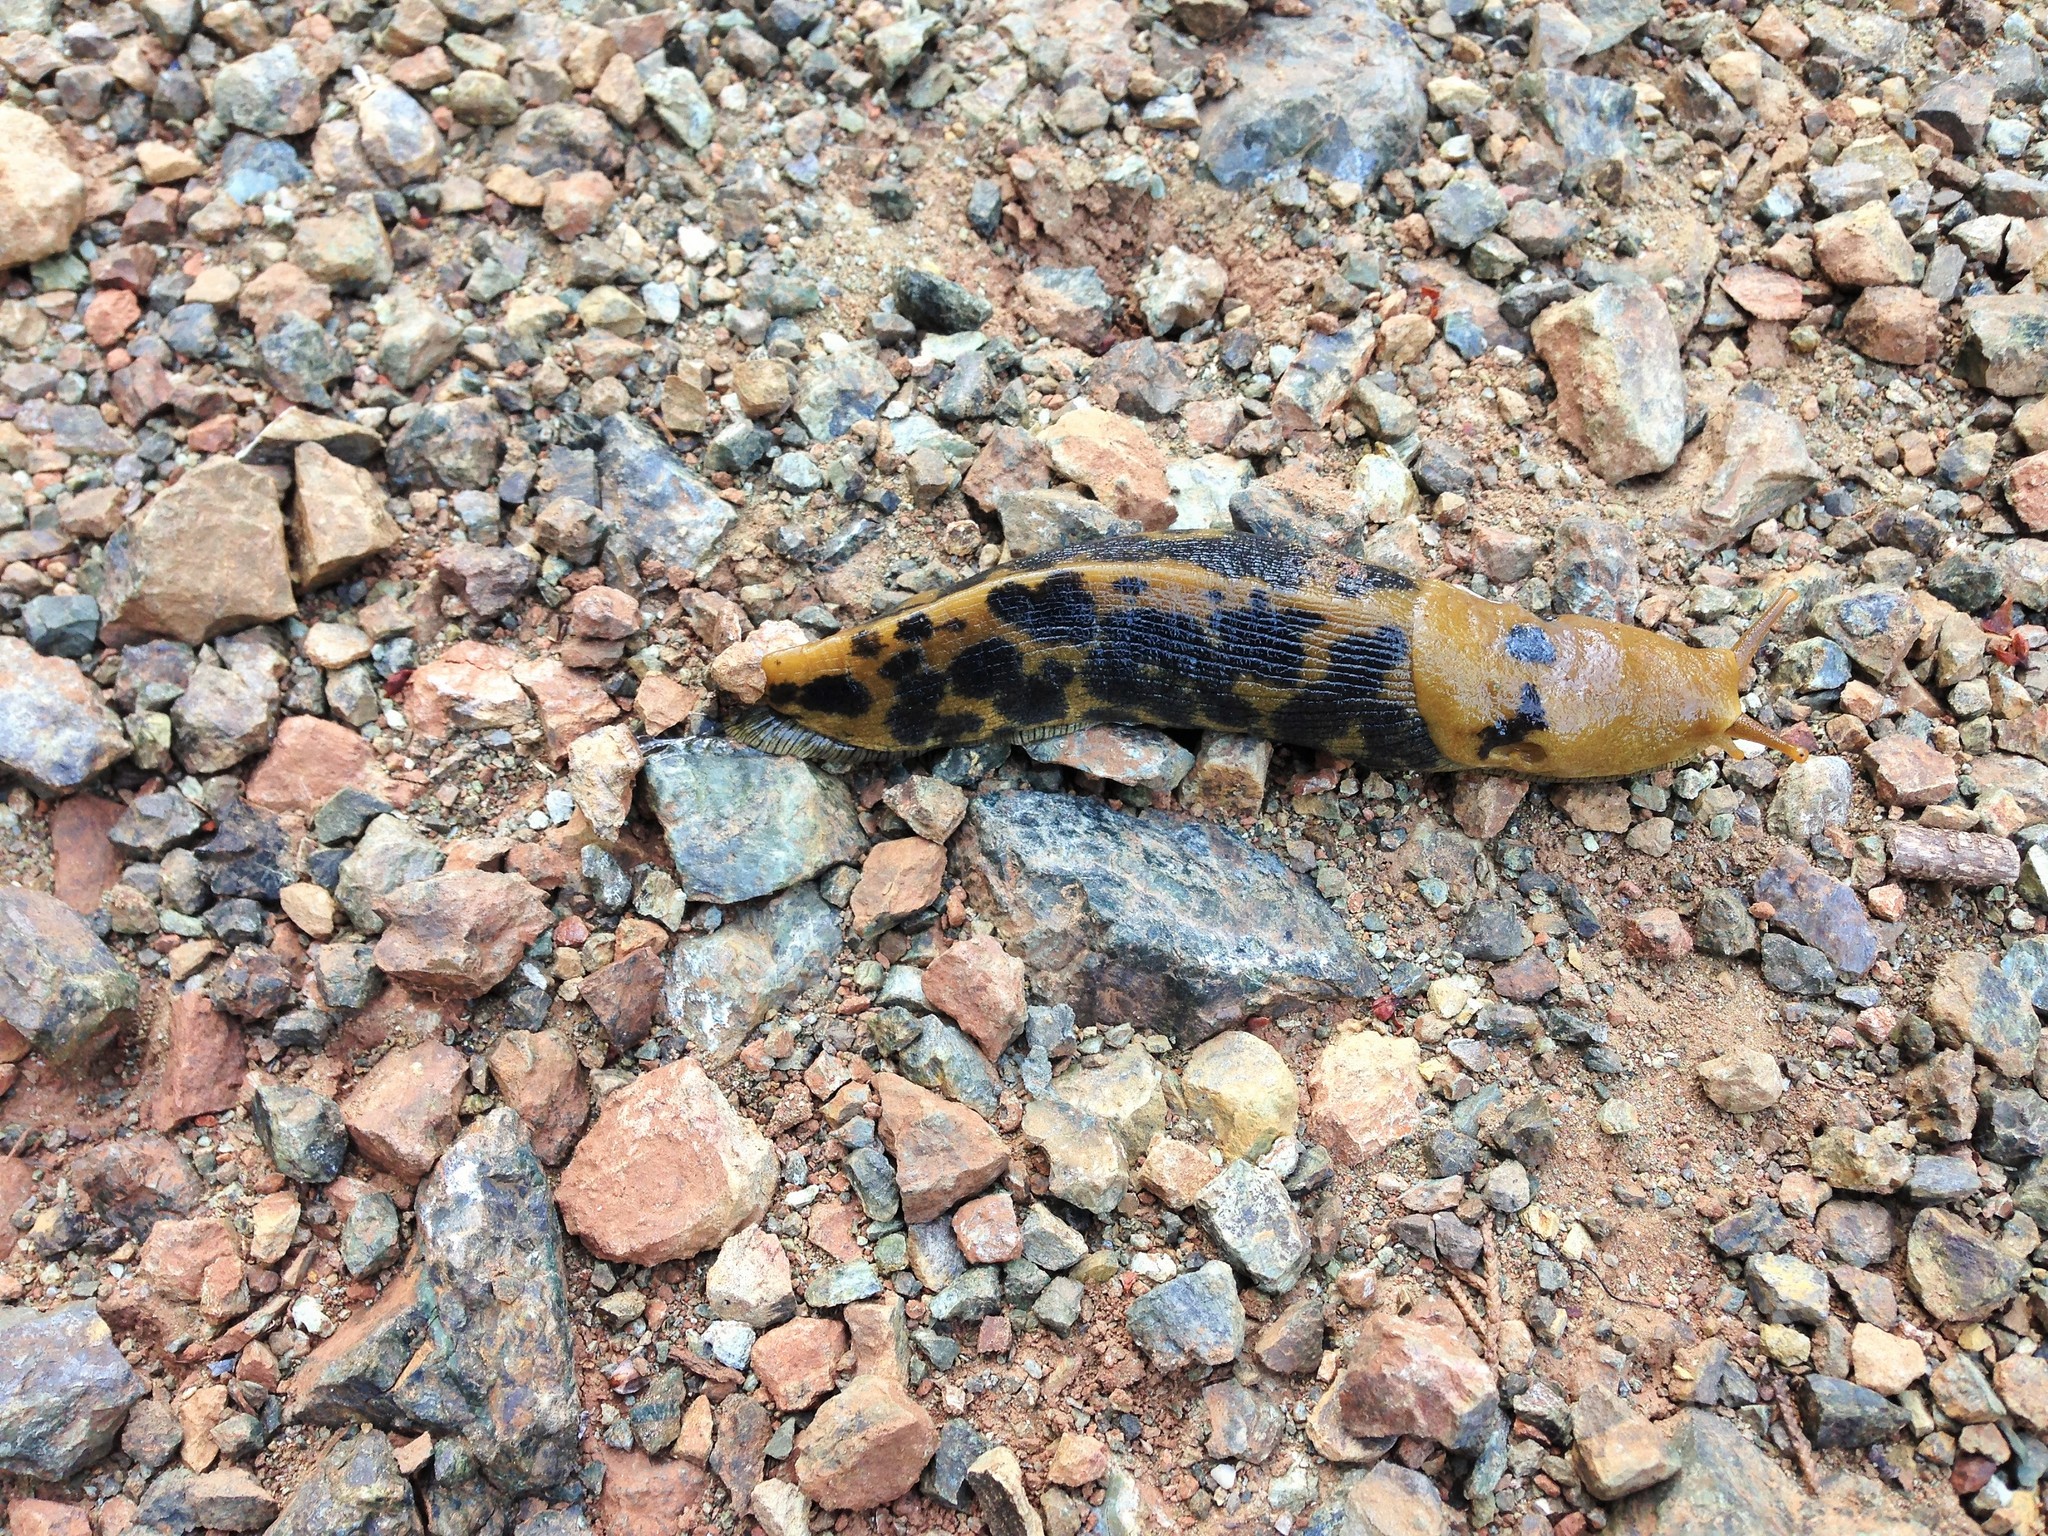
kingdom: Animalia
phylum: Mollusca
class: Gastropoda
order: Stylommatophora
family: Ariolimacidae
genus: Ariolimax
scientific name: Ariolimax buttoni
